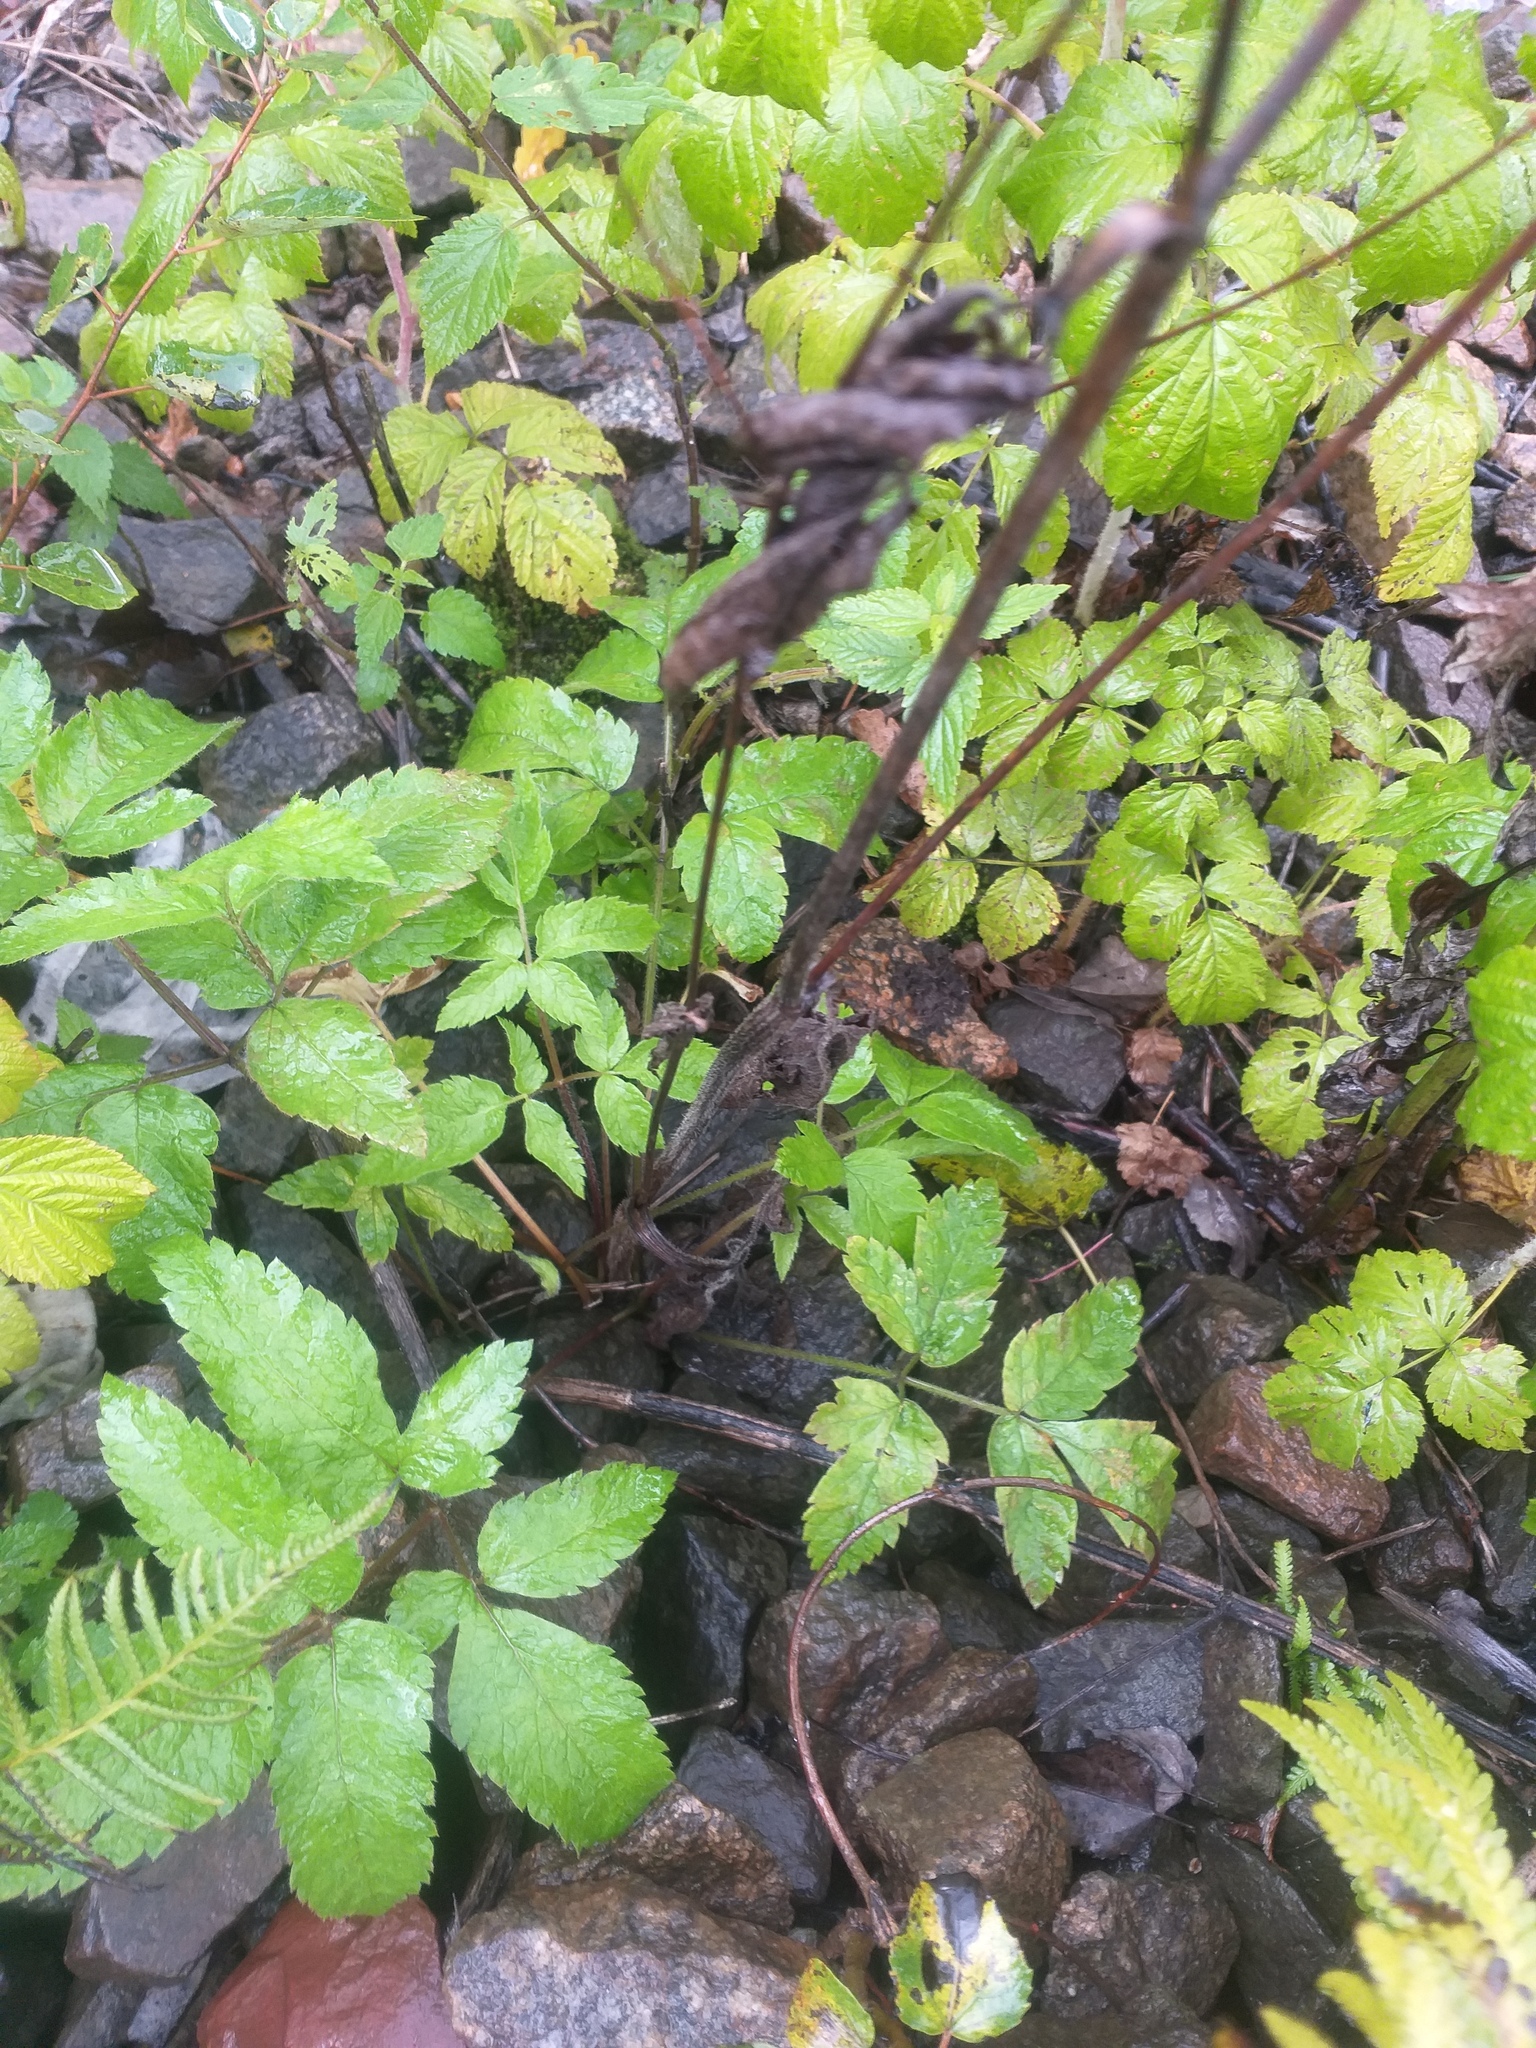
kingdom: Plantae
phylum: Tracheophyta
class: Magnoliopsida
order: Apiales
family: Apiaceae
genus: Chaerophyllum
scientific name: Chaerophyllum aromaticum
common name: Broadleaf chervil
